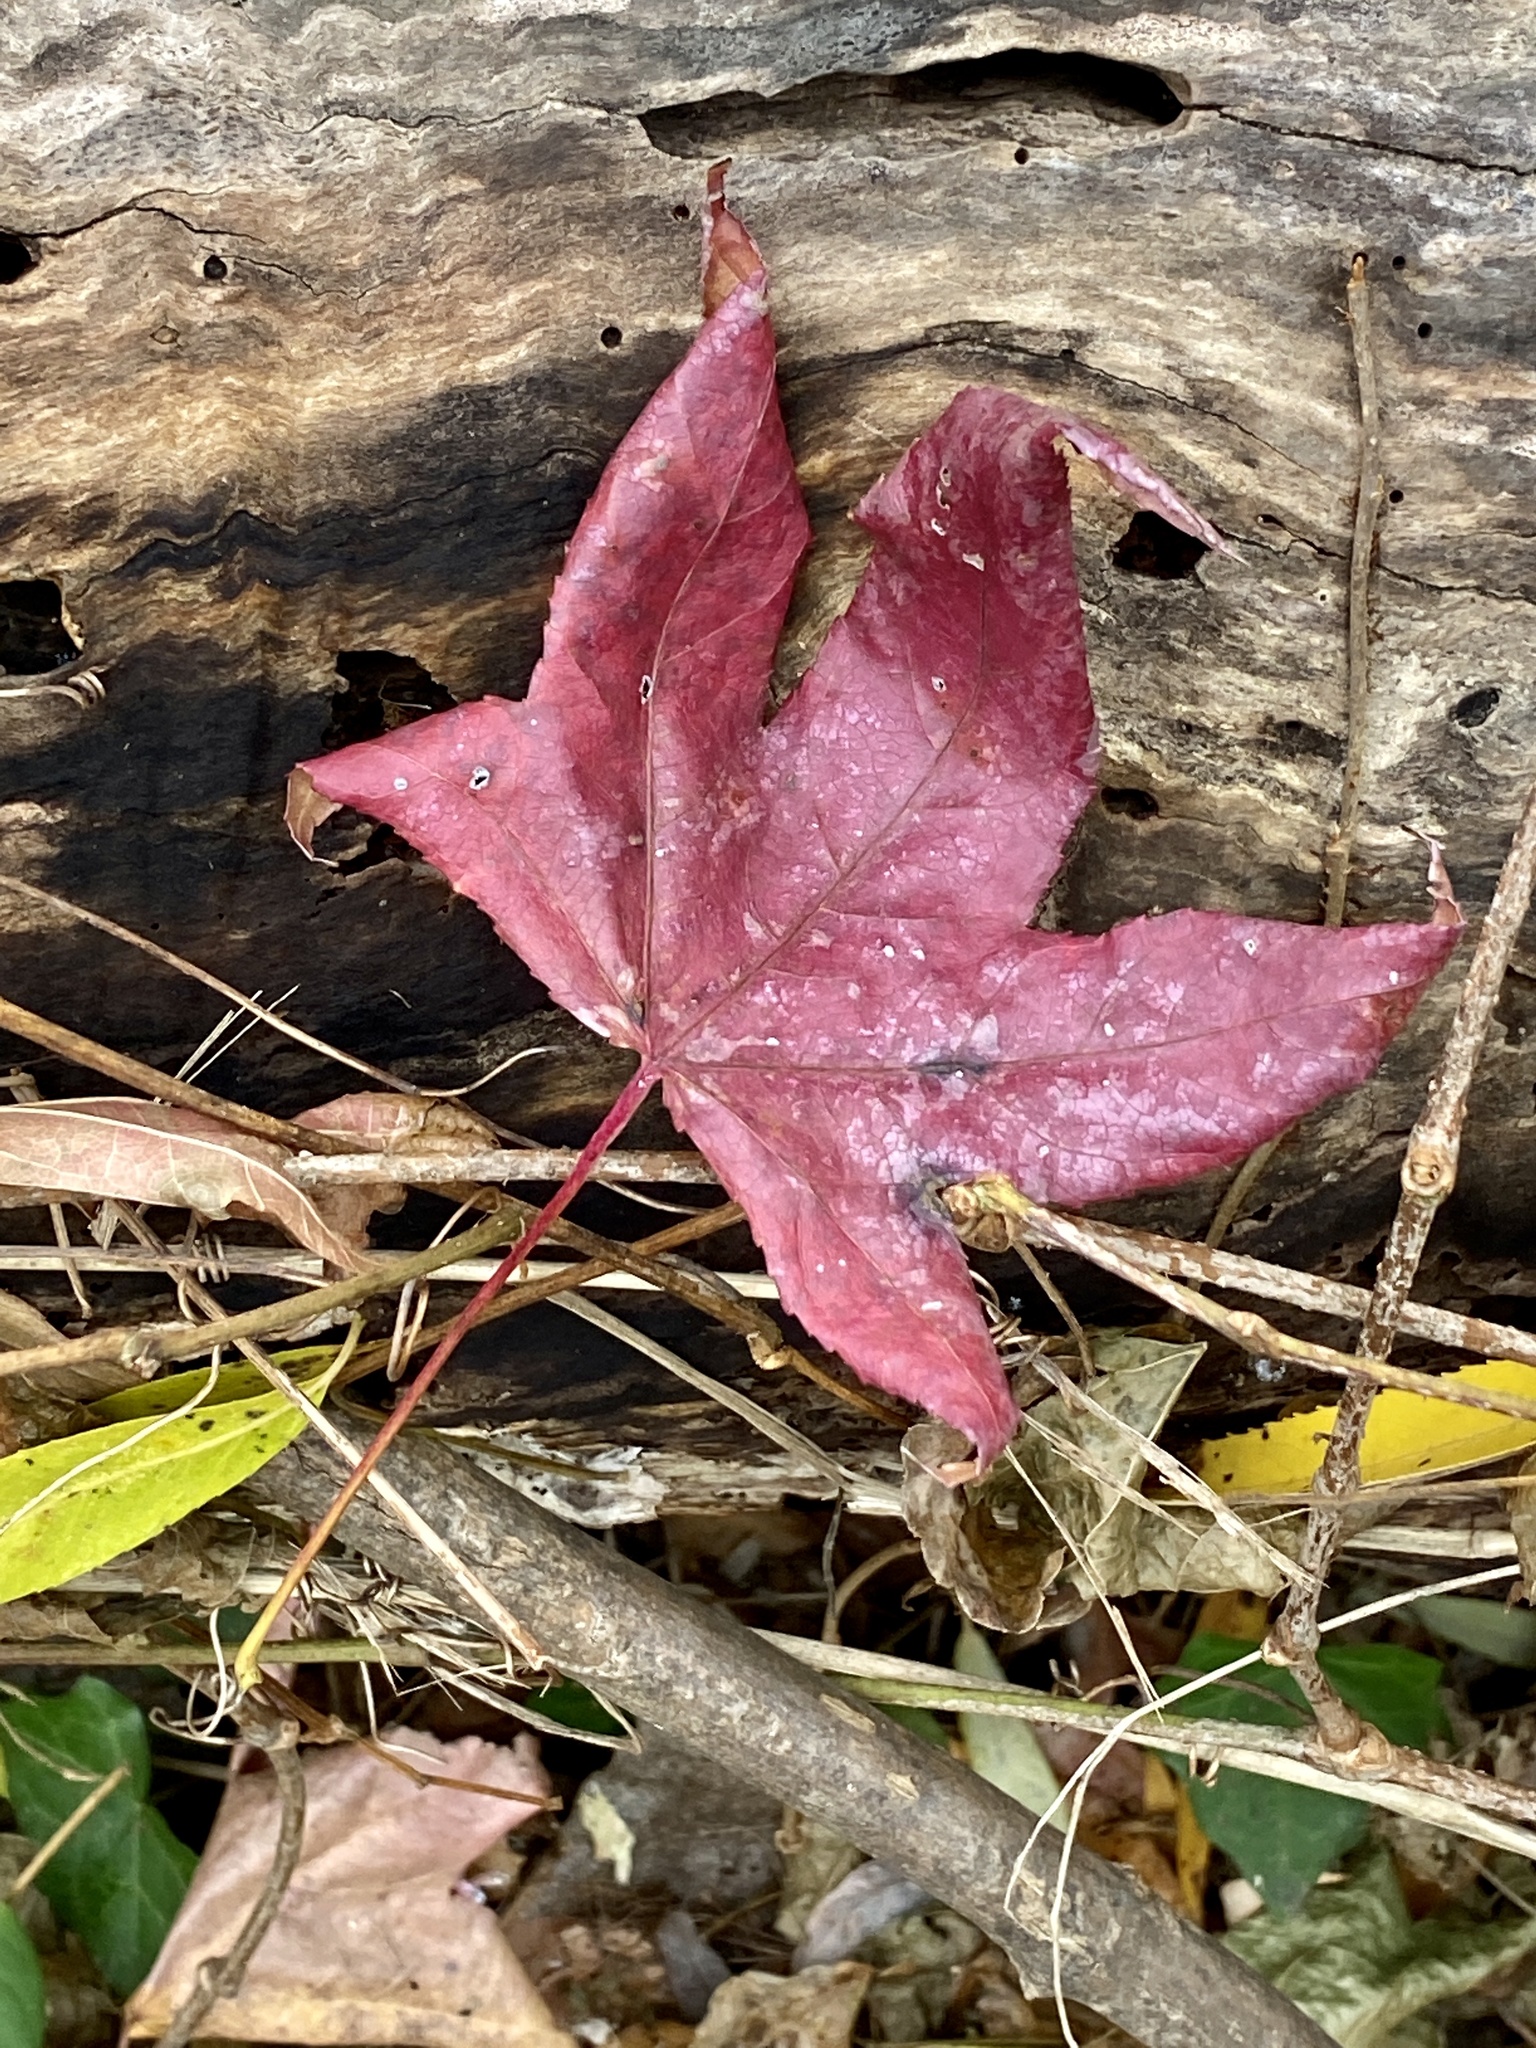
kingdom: Plantae
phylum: Tracheophyta
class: Magnoliopsida
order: Saxifragales
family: Altingiaceae
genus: Liquidambar
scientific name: Liquidambar styraciflua
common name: Sweet gum
